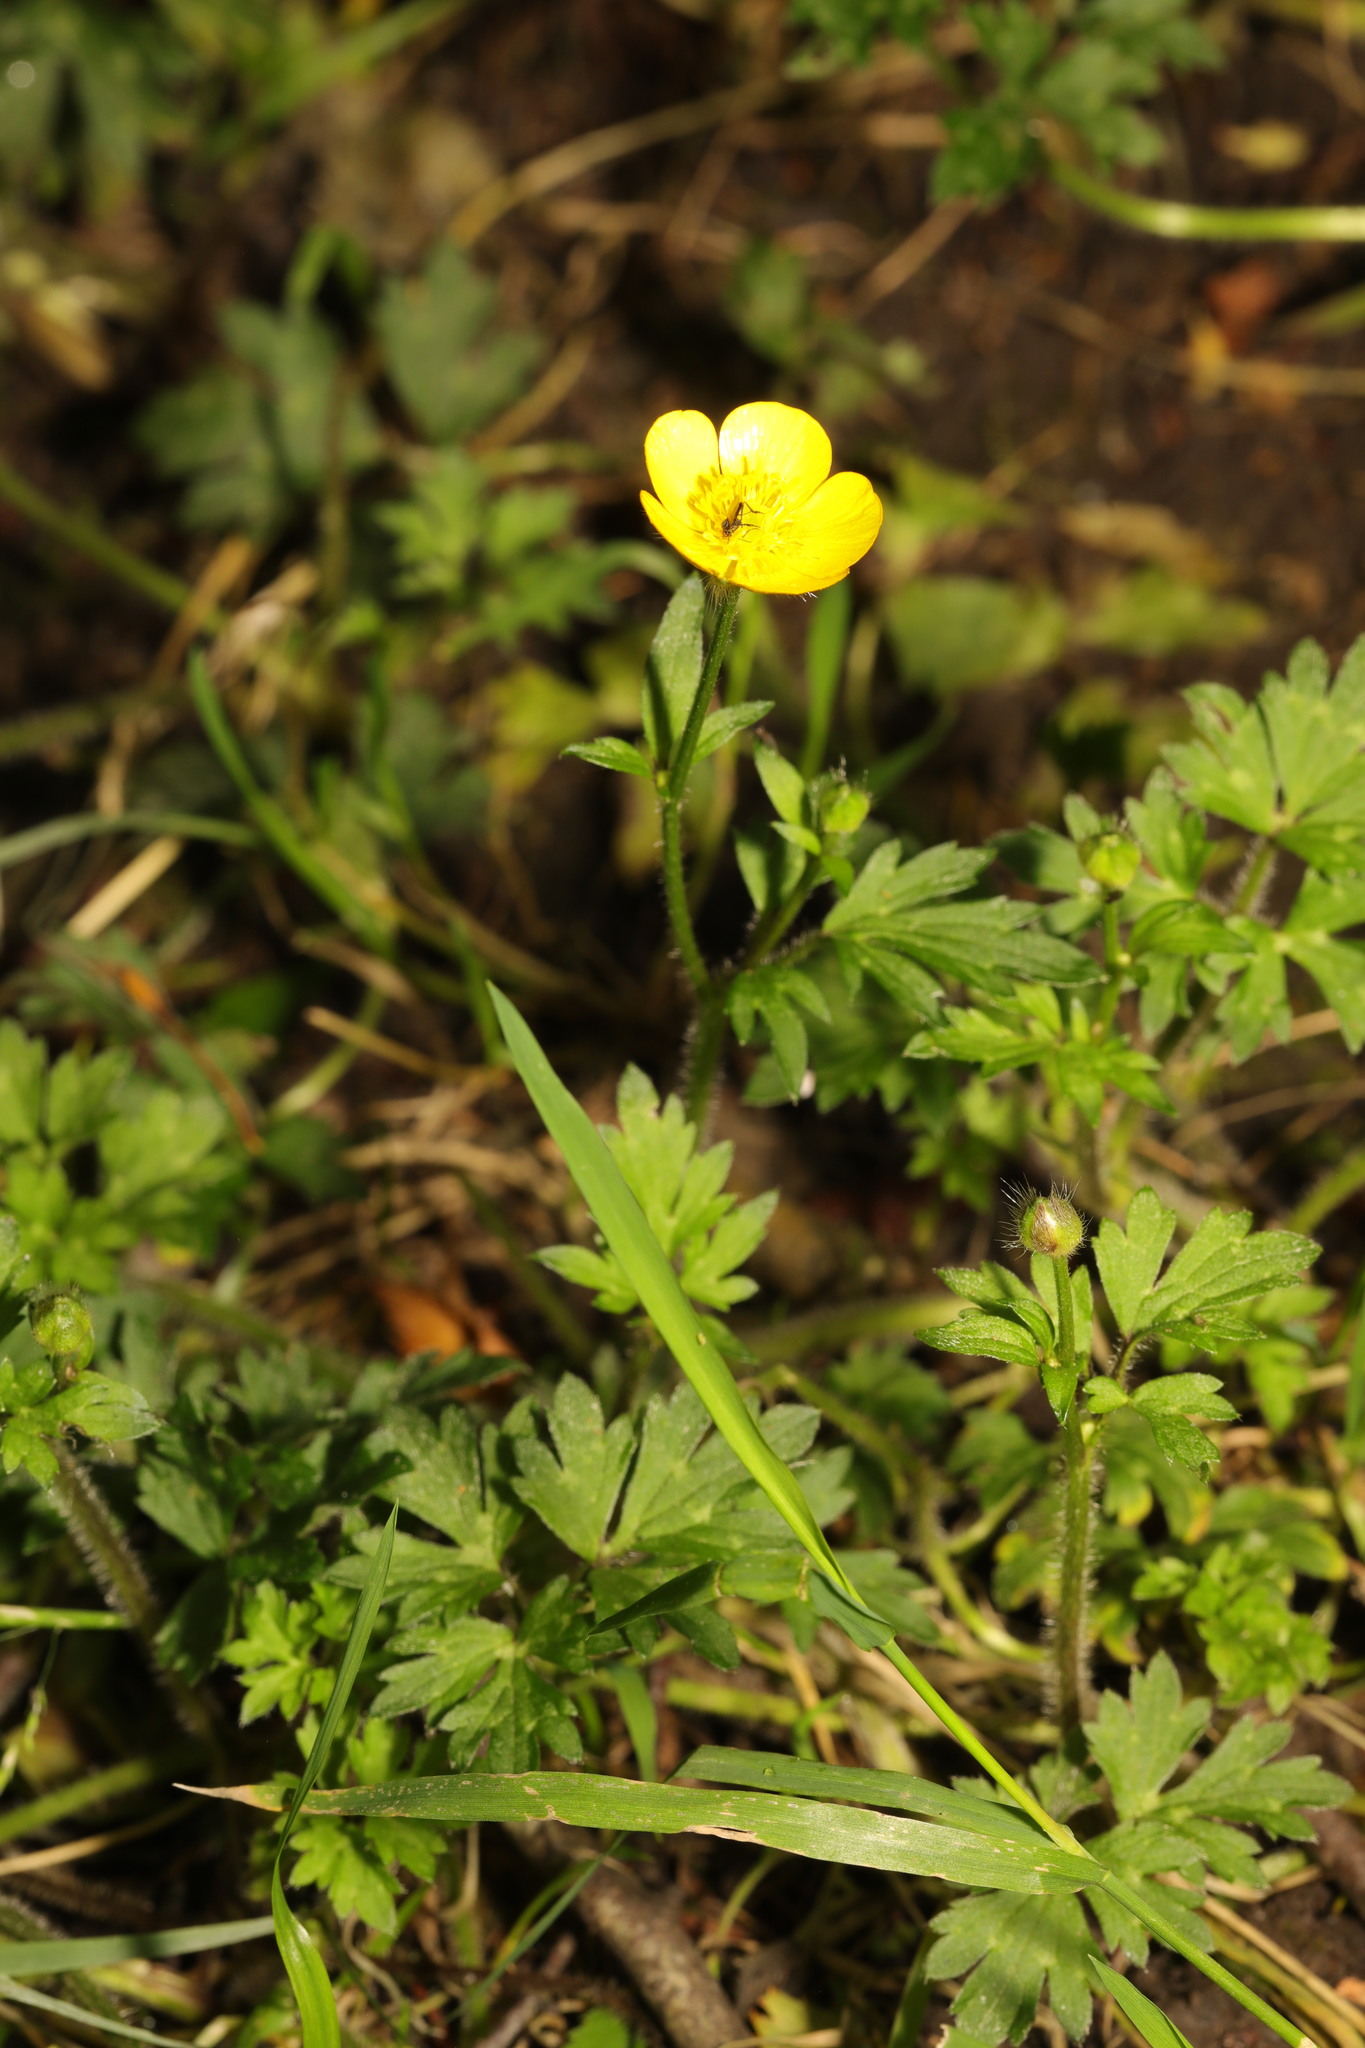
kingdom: Plantae
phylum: Tracheophyta
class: Magnoliopsida
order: Ranunculales
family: Ranunculaceae
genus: Ranunculus
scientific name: Ranunculus repens
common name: Creeping buttercup
